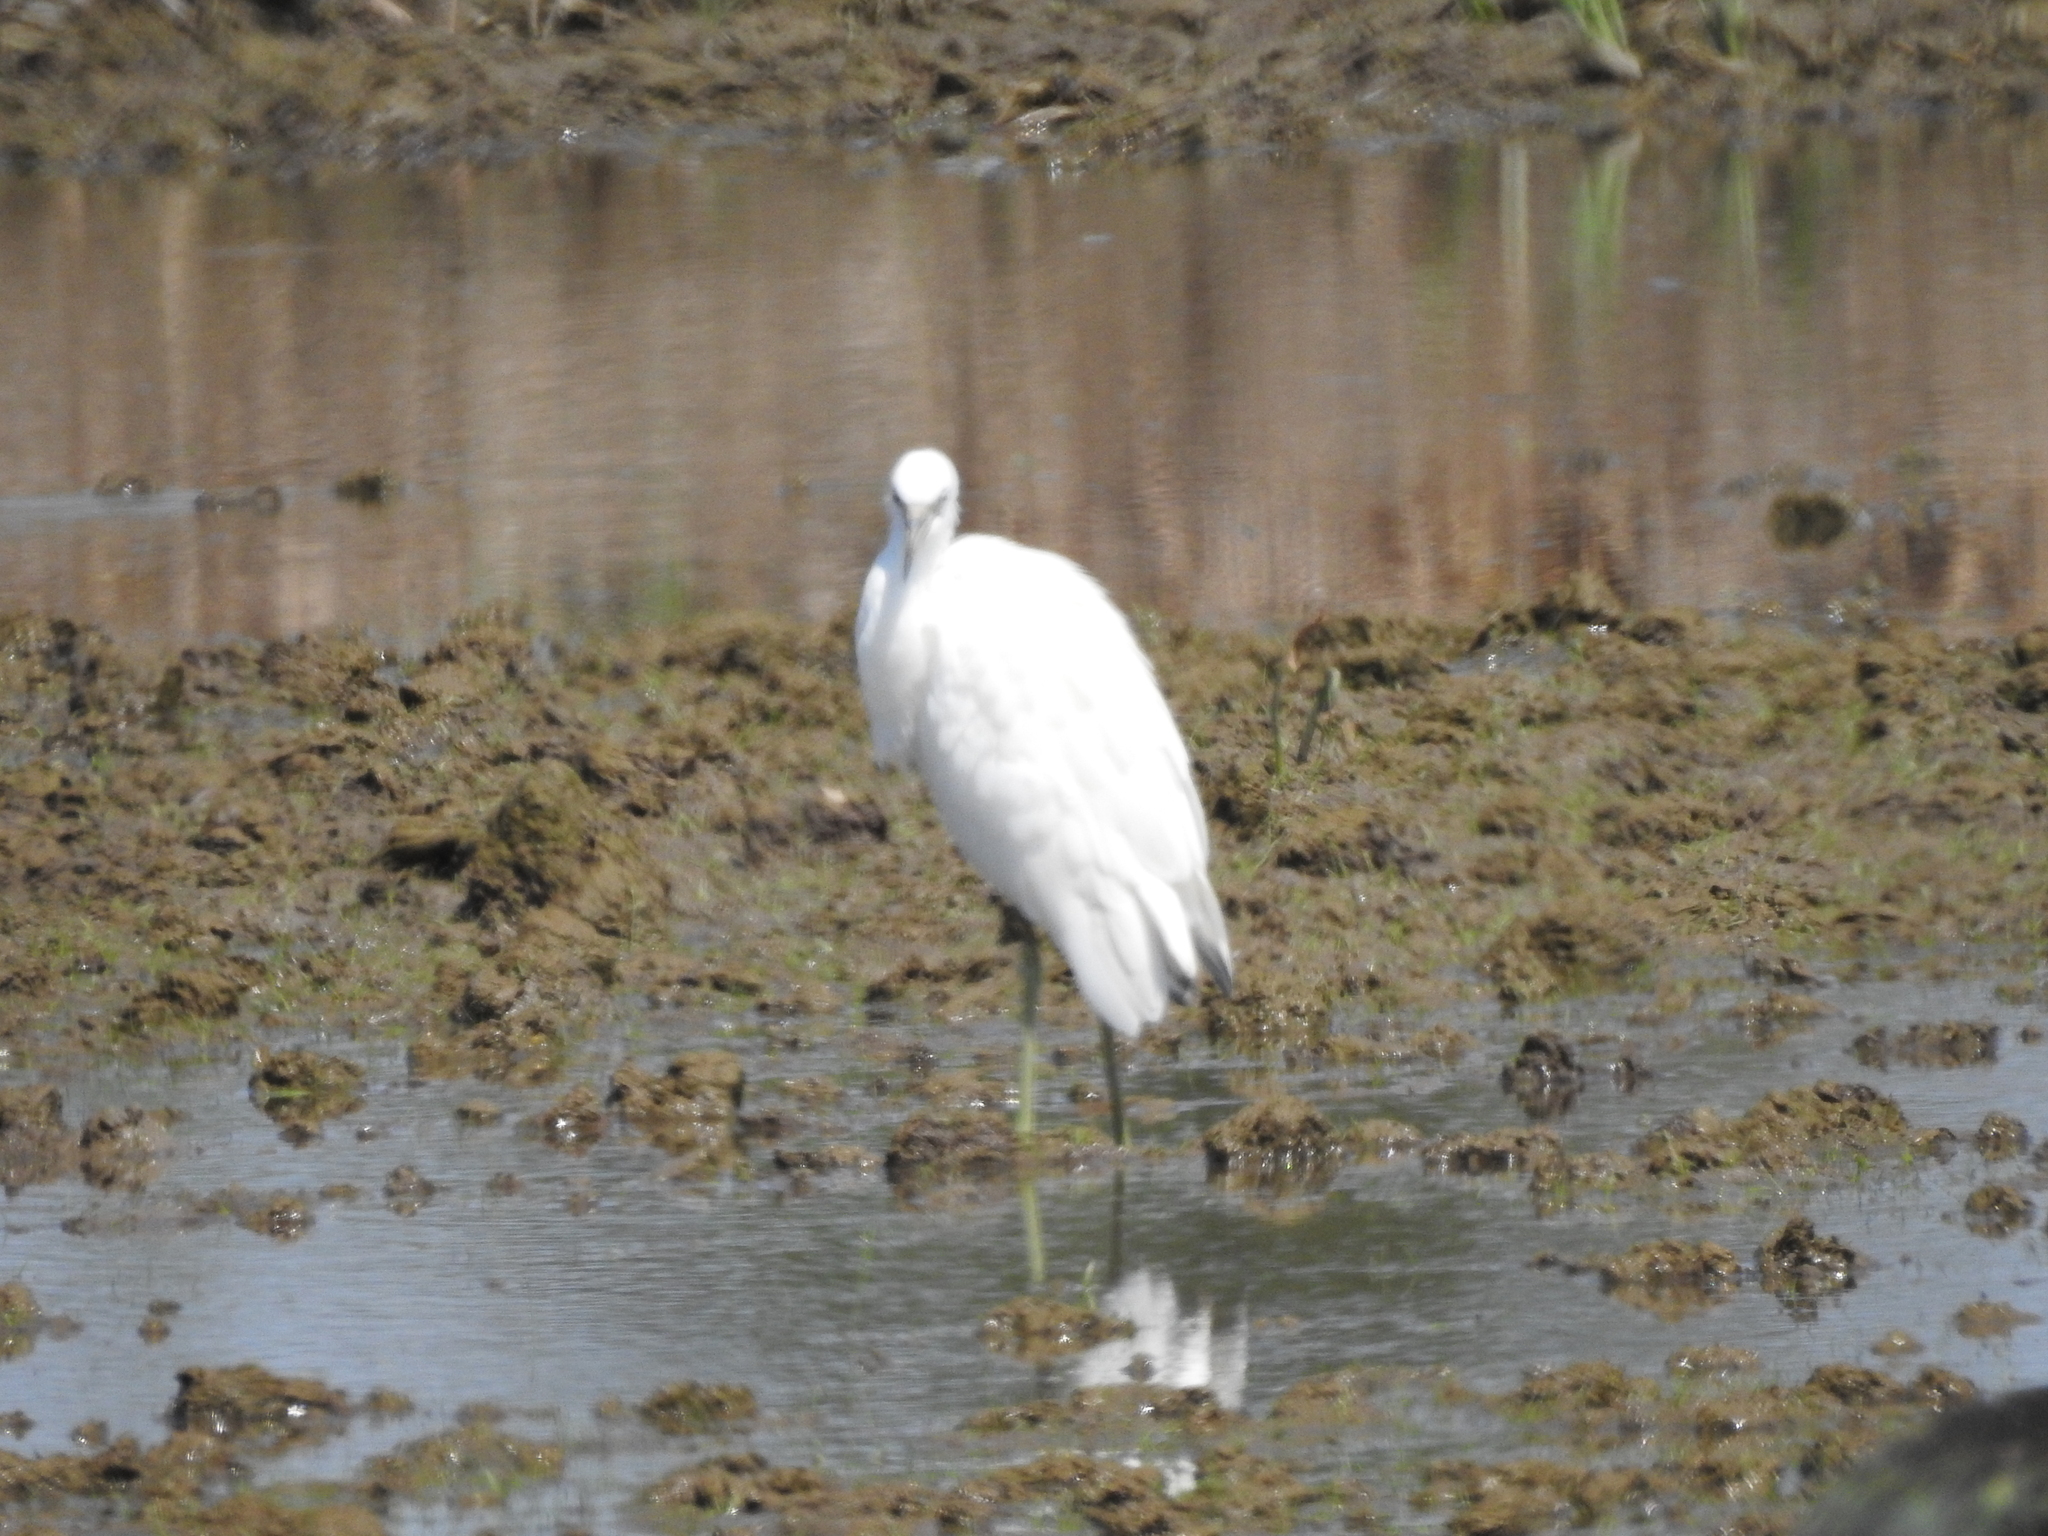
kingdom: Animalia
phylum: Chordata
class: Aves
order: Pelecaniformes
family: Ardeidae
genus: Egretta
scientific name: Egretta caerulea
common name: Little blue heron
